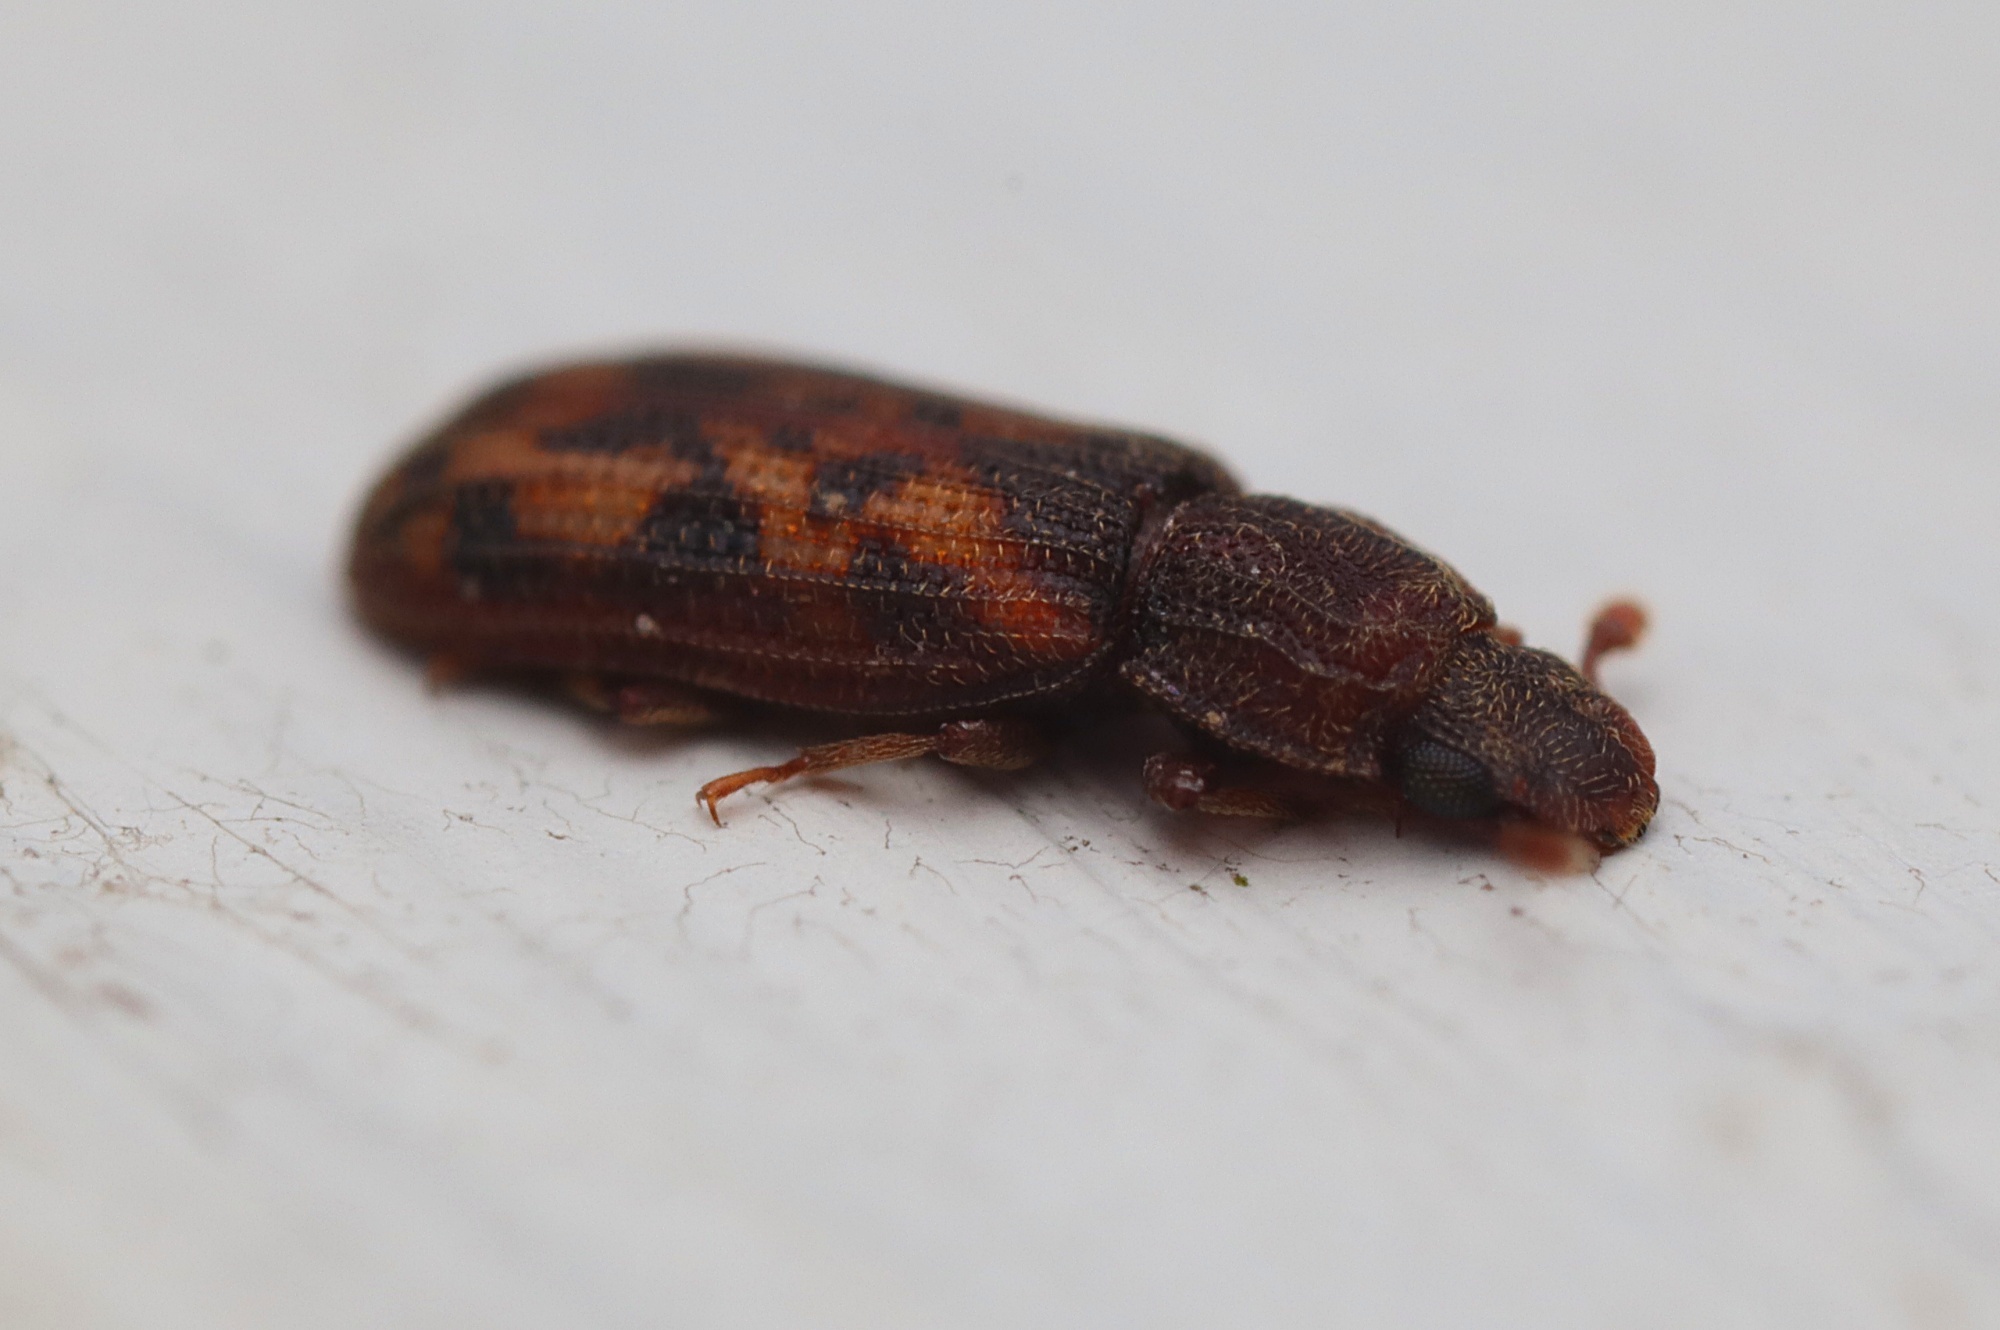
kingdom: Animalia
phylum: Arthropoda
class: Insecta
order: Coleoptera
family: Zopheridae
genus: Bitoma
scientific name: Bitoma insularis
